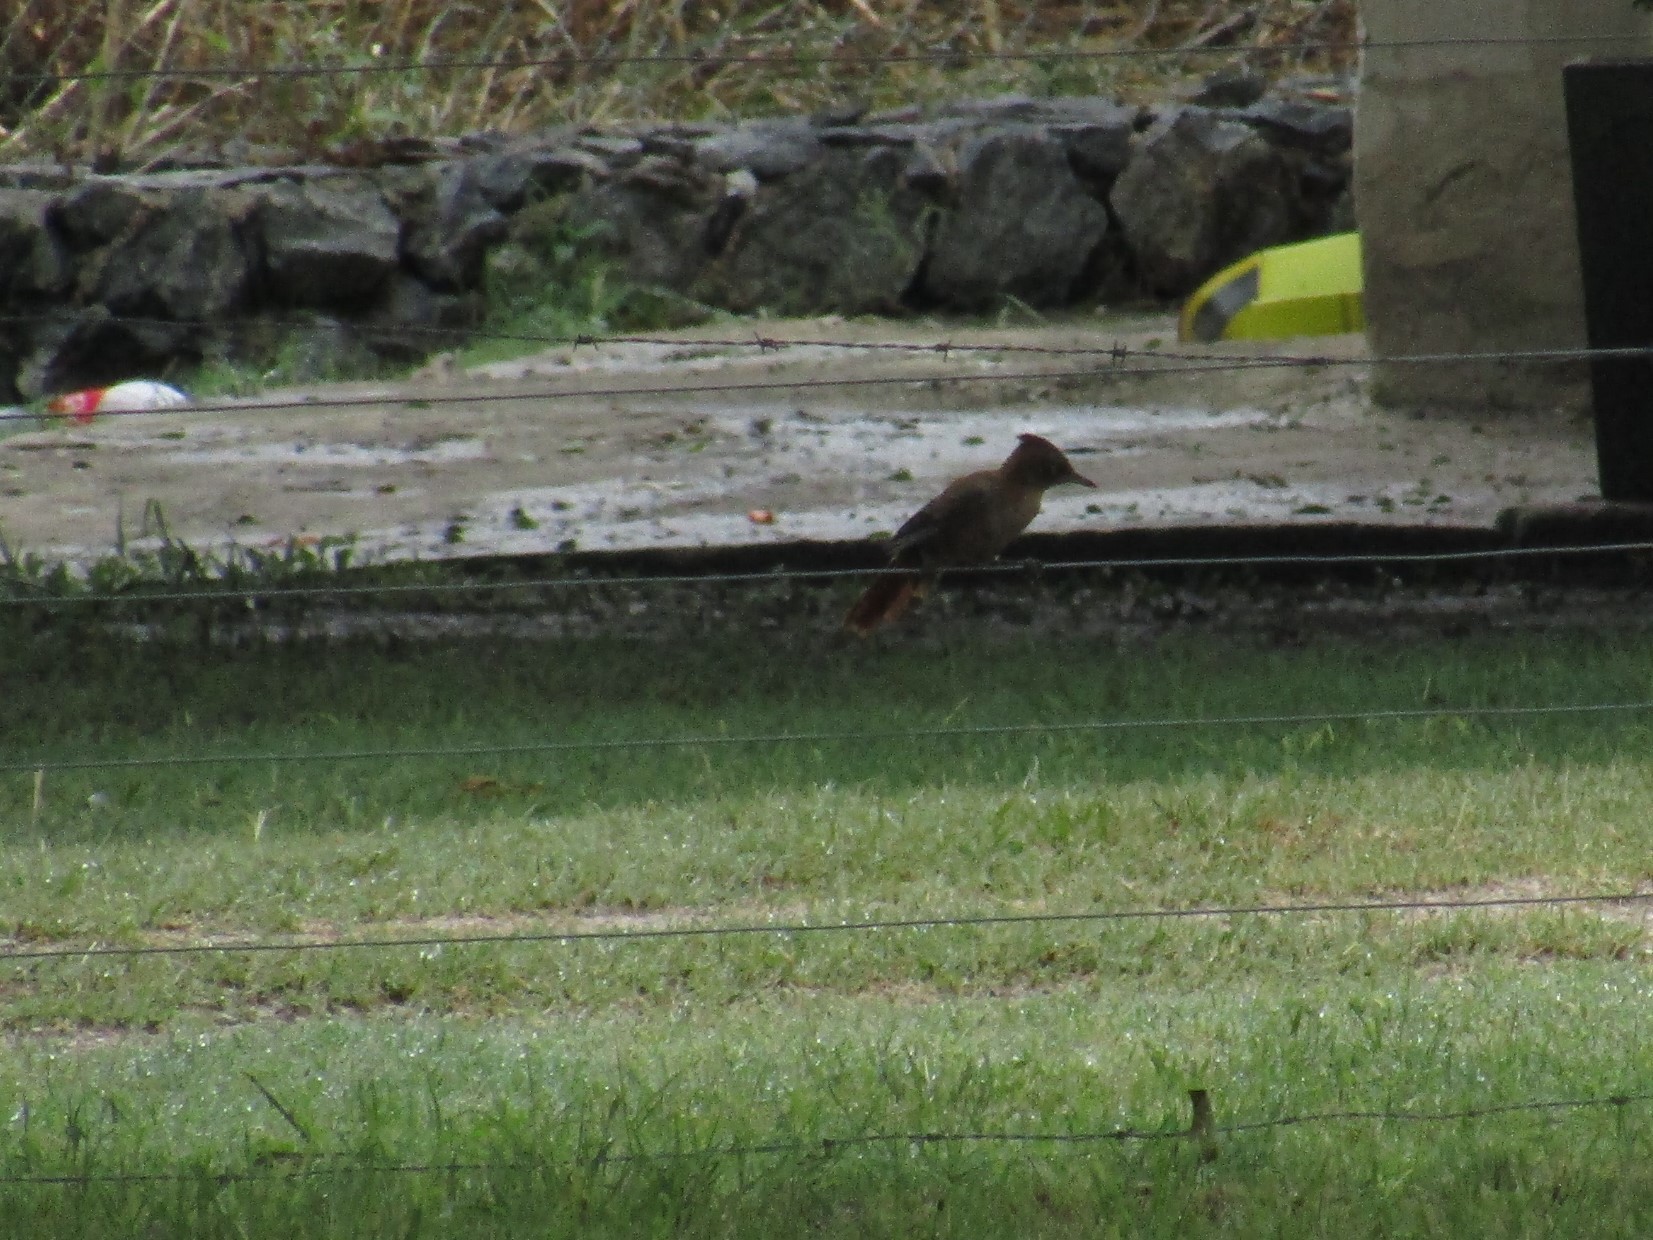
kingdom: Animalia
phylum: Chordata
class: Aves
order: Passeriformes
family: Furnariidae
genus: Pseudoseisura
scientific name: Pseudoseisura lophotes
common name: Brown cacholote
